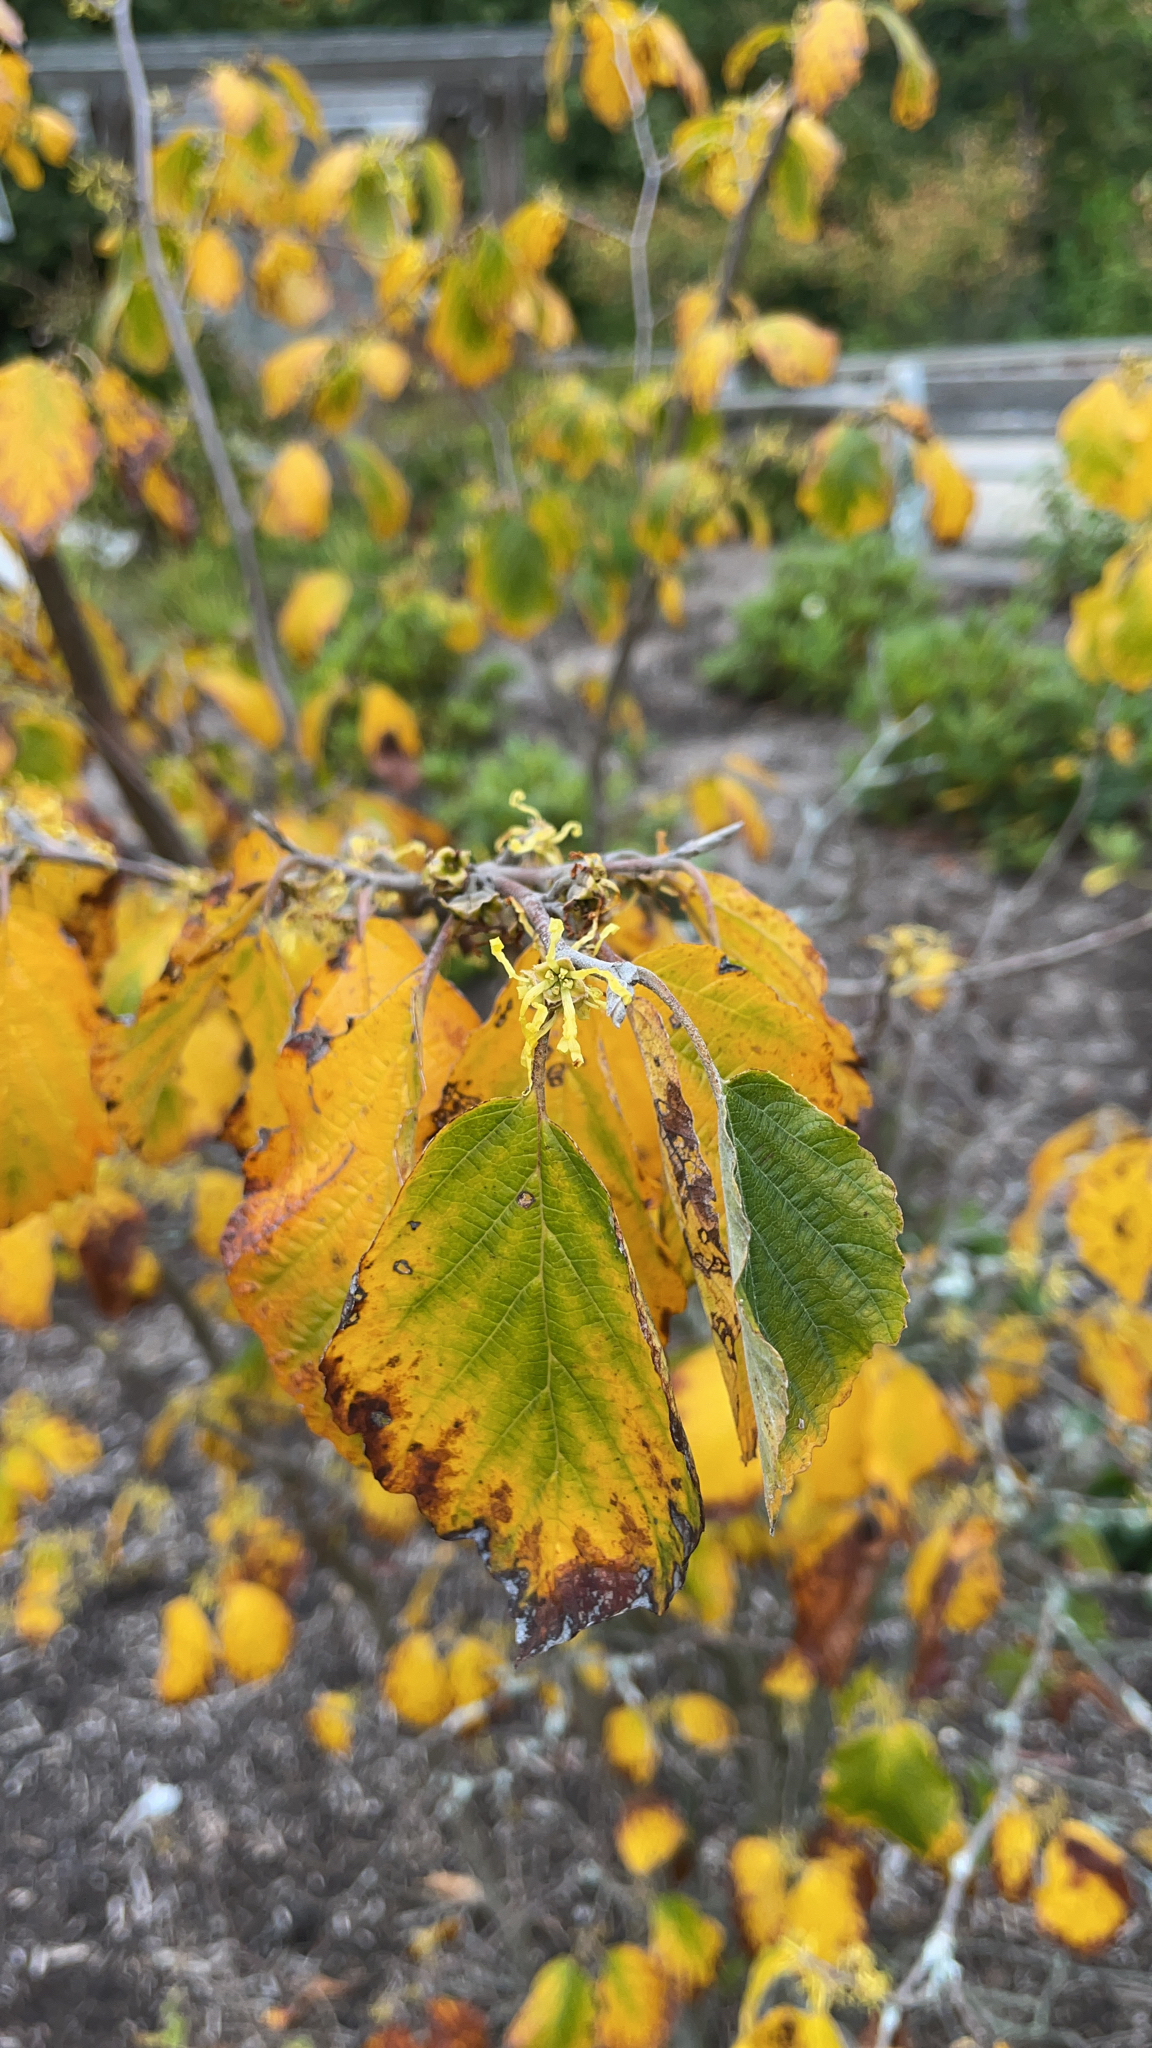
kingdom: Plantae
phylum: Tracheophyta
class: Magnoliopsida
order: Saxifragales
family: Hamamelidaceae
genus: Hamamelis
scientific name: Hamamelis virginiana
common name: Witch-hazel
